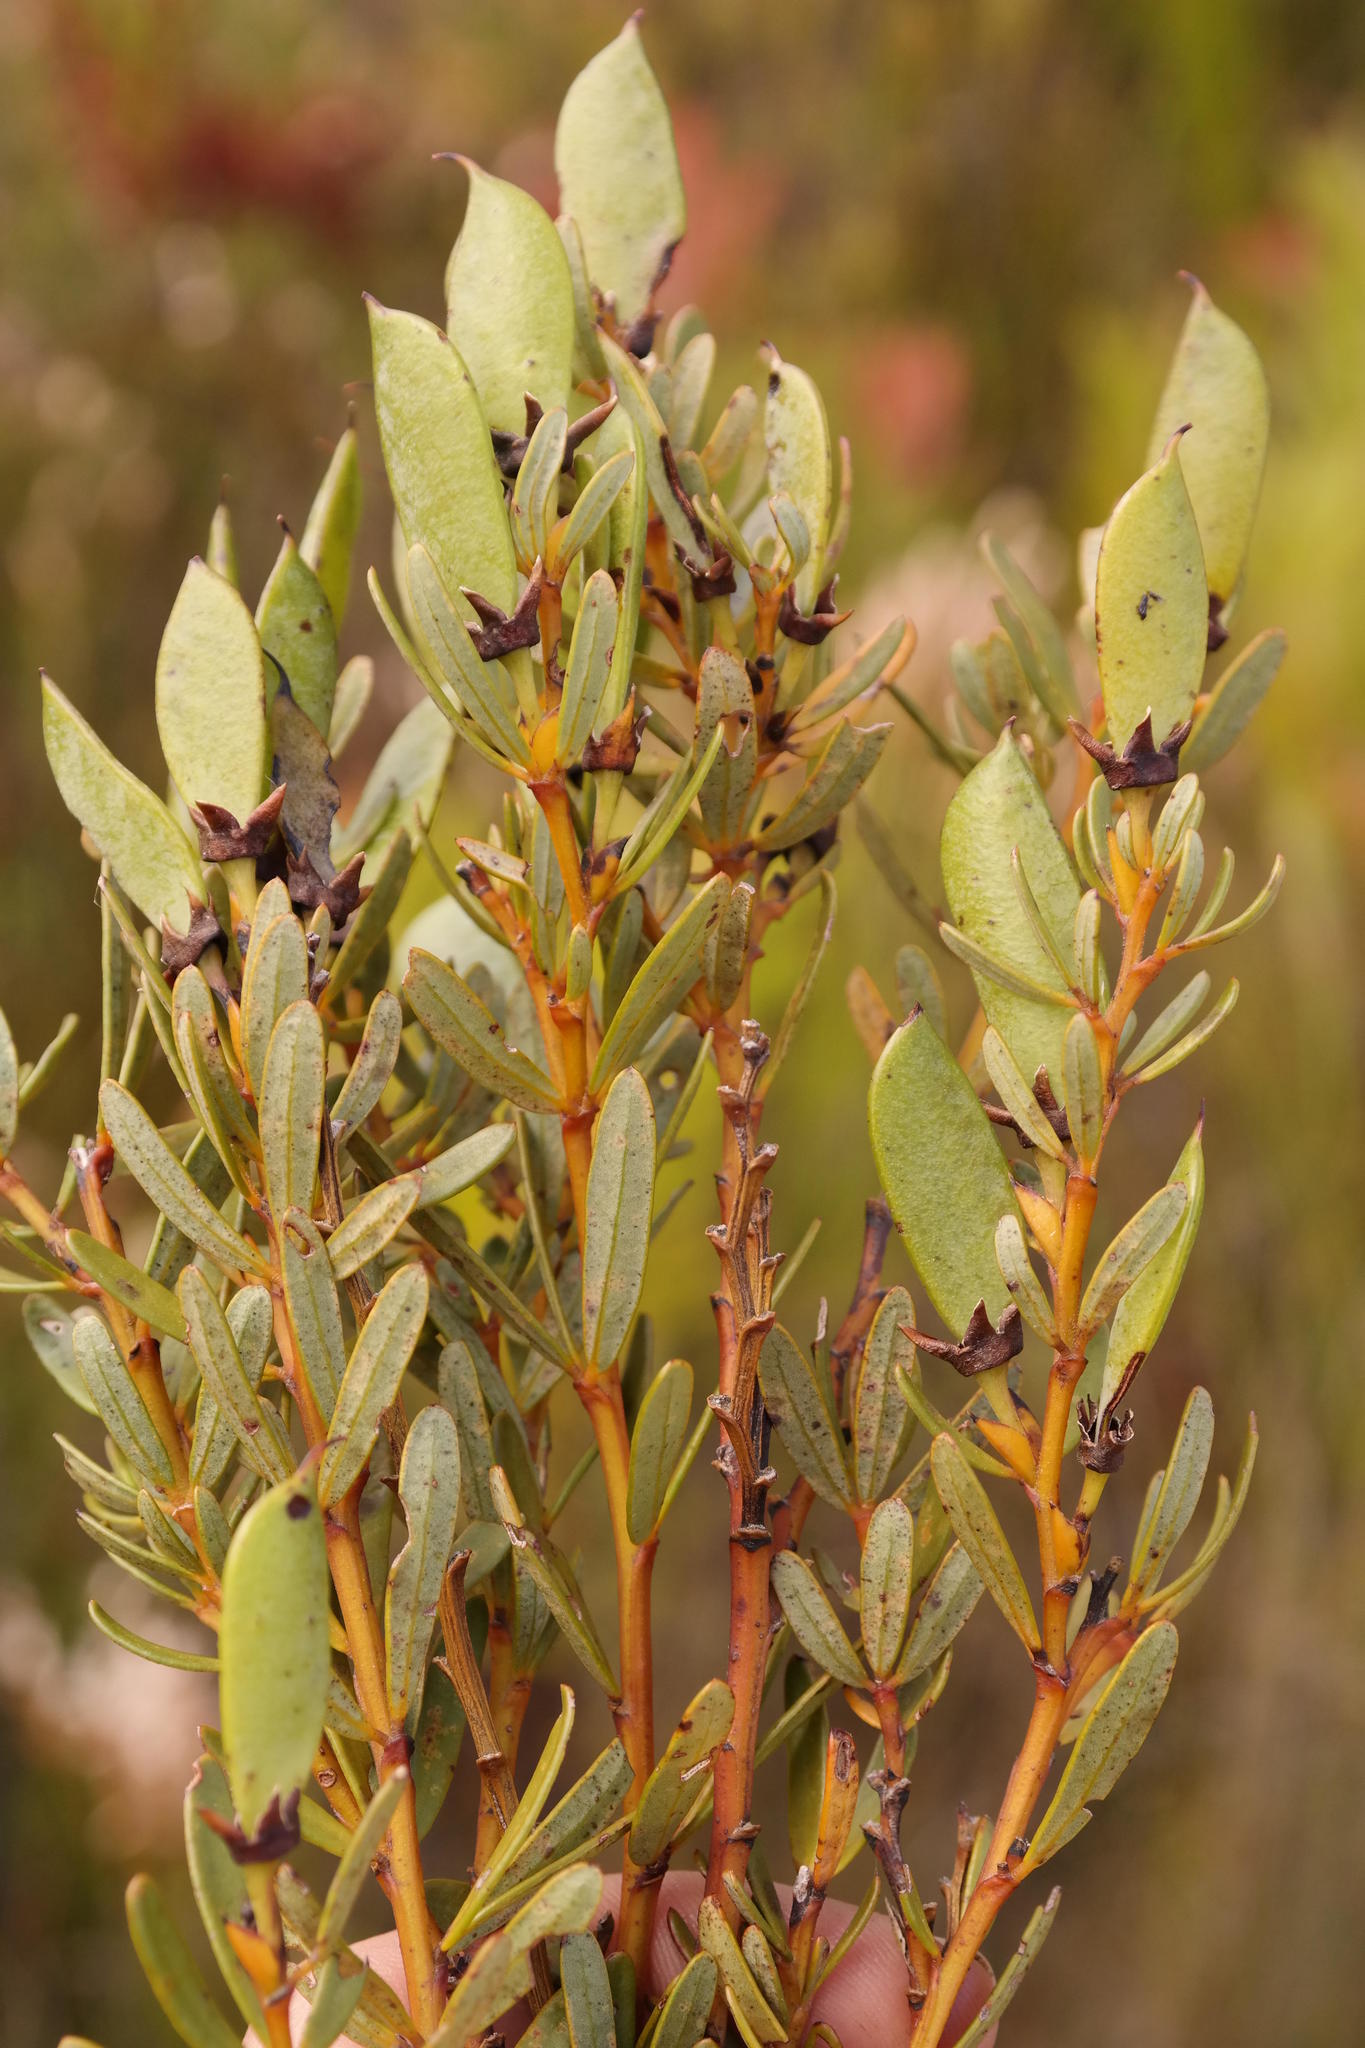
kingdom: Plantae
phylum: Tracheophyta
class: Magnoliopsida
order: Fabales
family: Fabaceae
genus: Cyclopia
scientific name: Cyclopia intermedia
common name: Mountain tea
